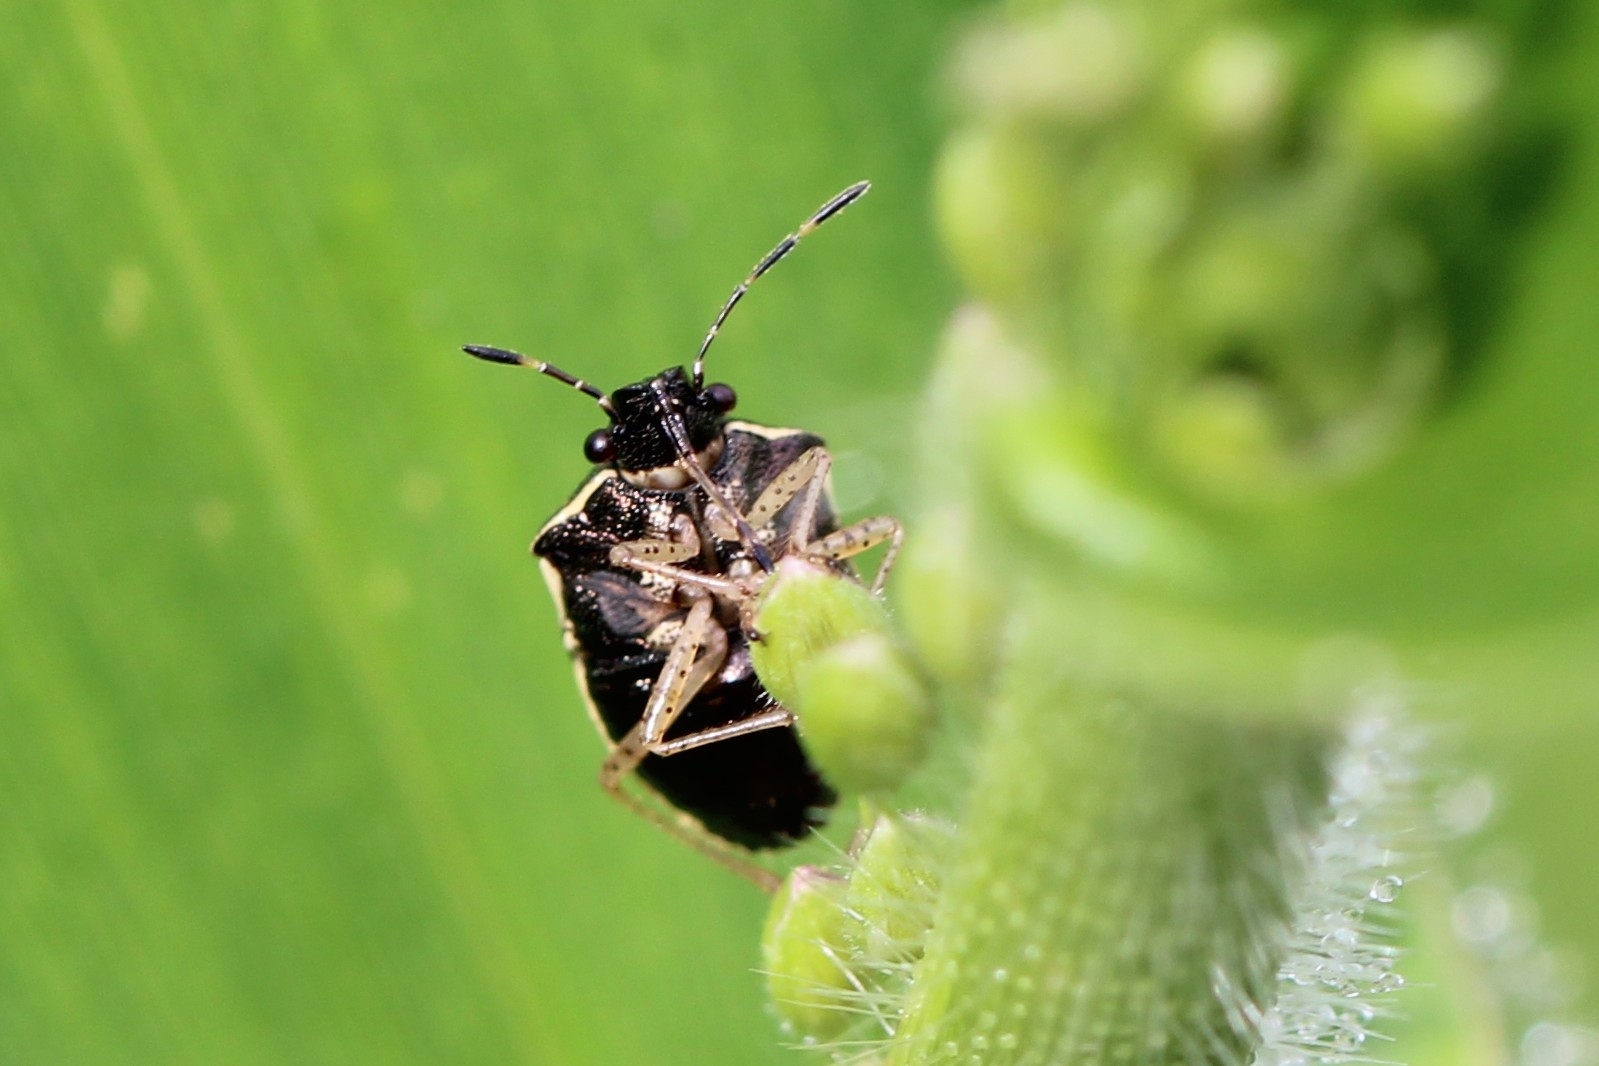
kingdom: Animalia
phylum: Arthropoda
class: Insecta
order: Hemiptera
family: Pentatomidae
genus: Mormidea
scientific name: Mormidea lugens
